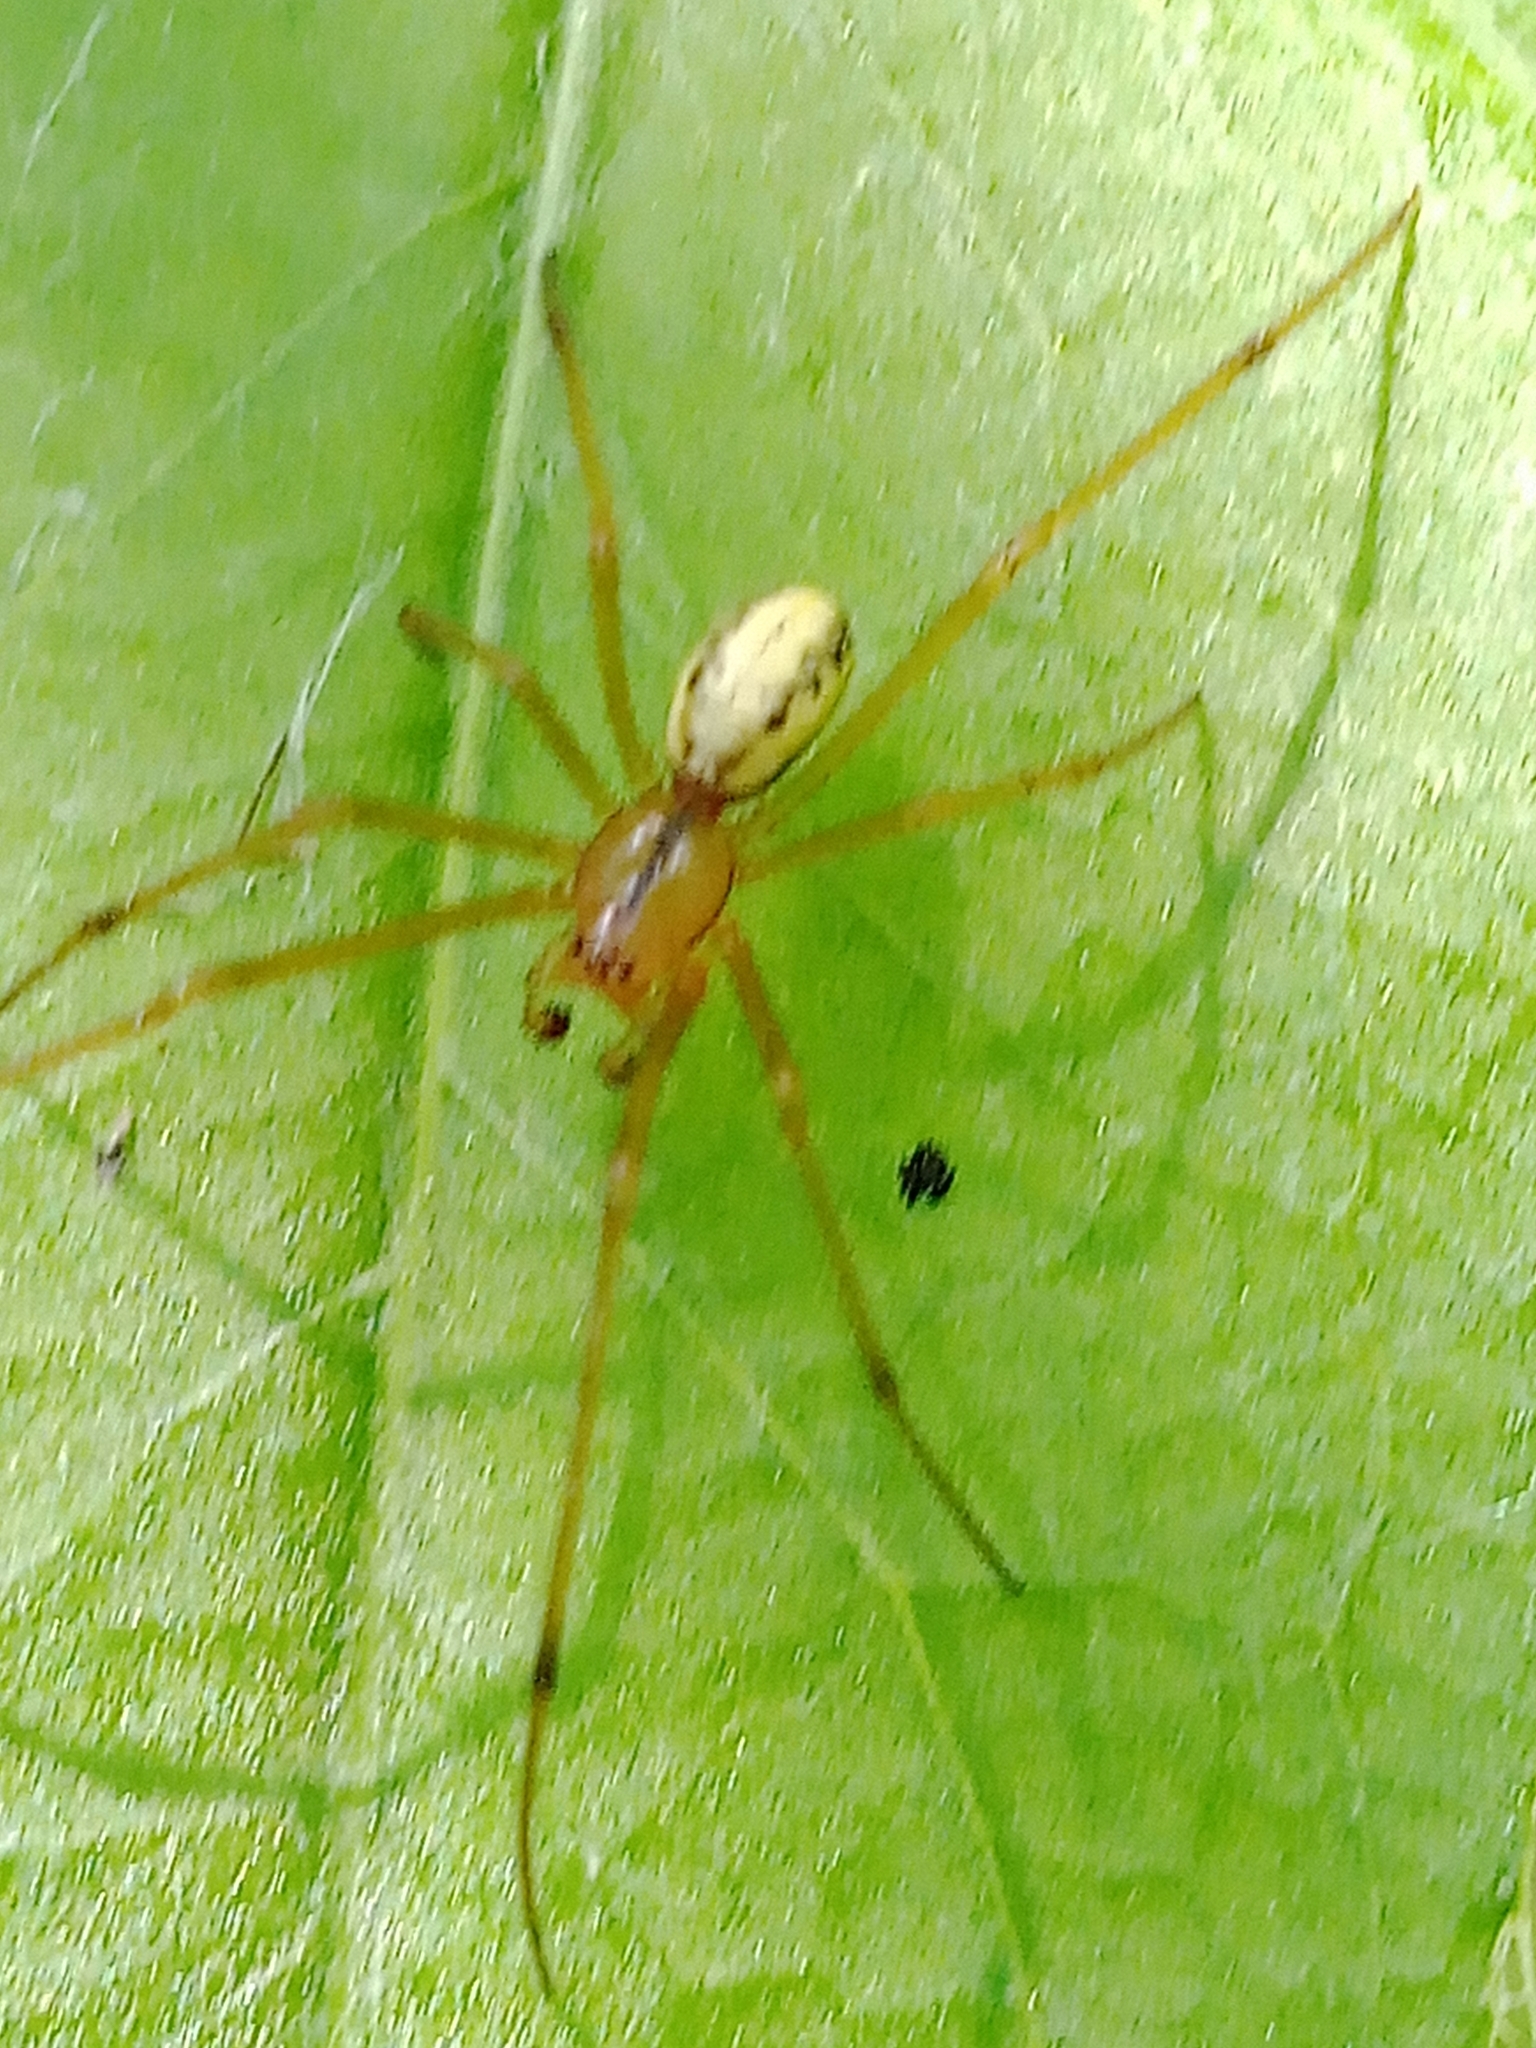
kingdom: Animalia
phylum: Arthropoda
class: Arachnida
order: Araneae
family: Theridiidae
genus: Enoplognatha
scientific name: Enoplognatha ovata
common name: Common candy-striped spider
